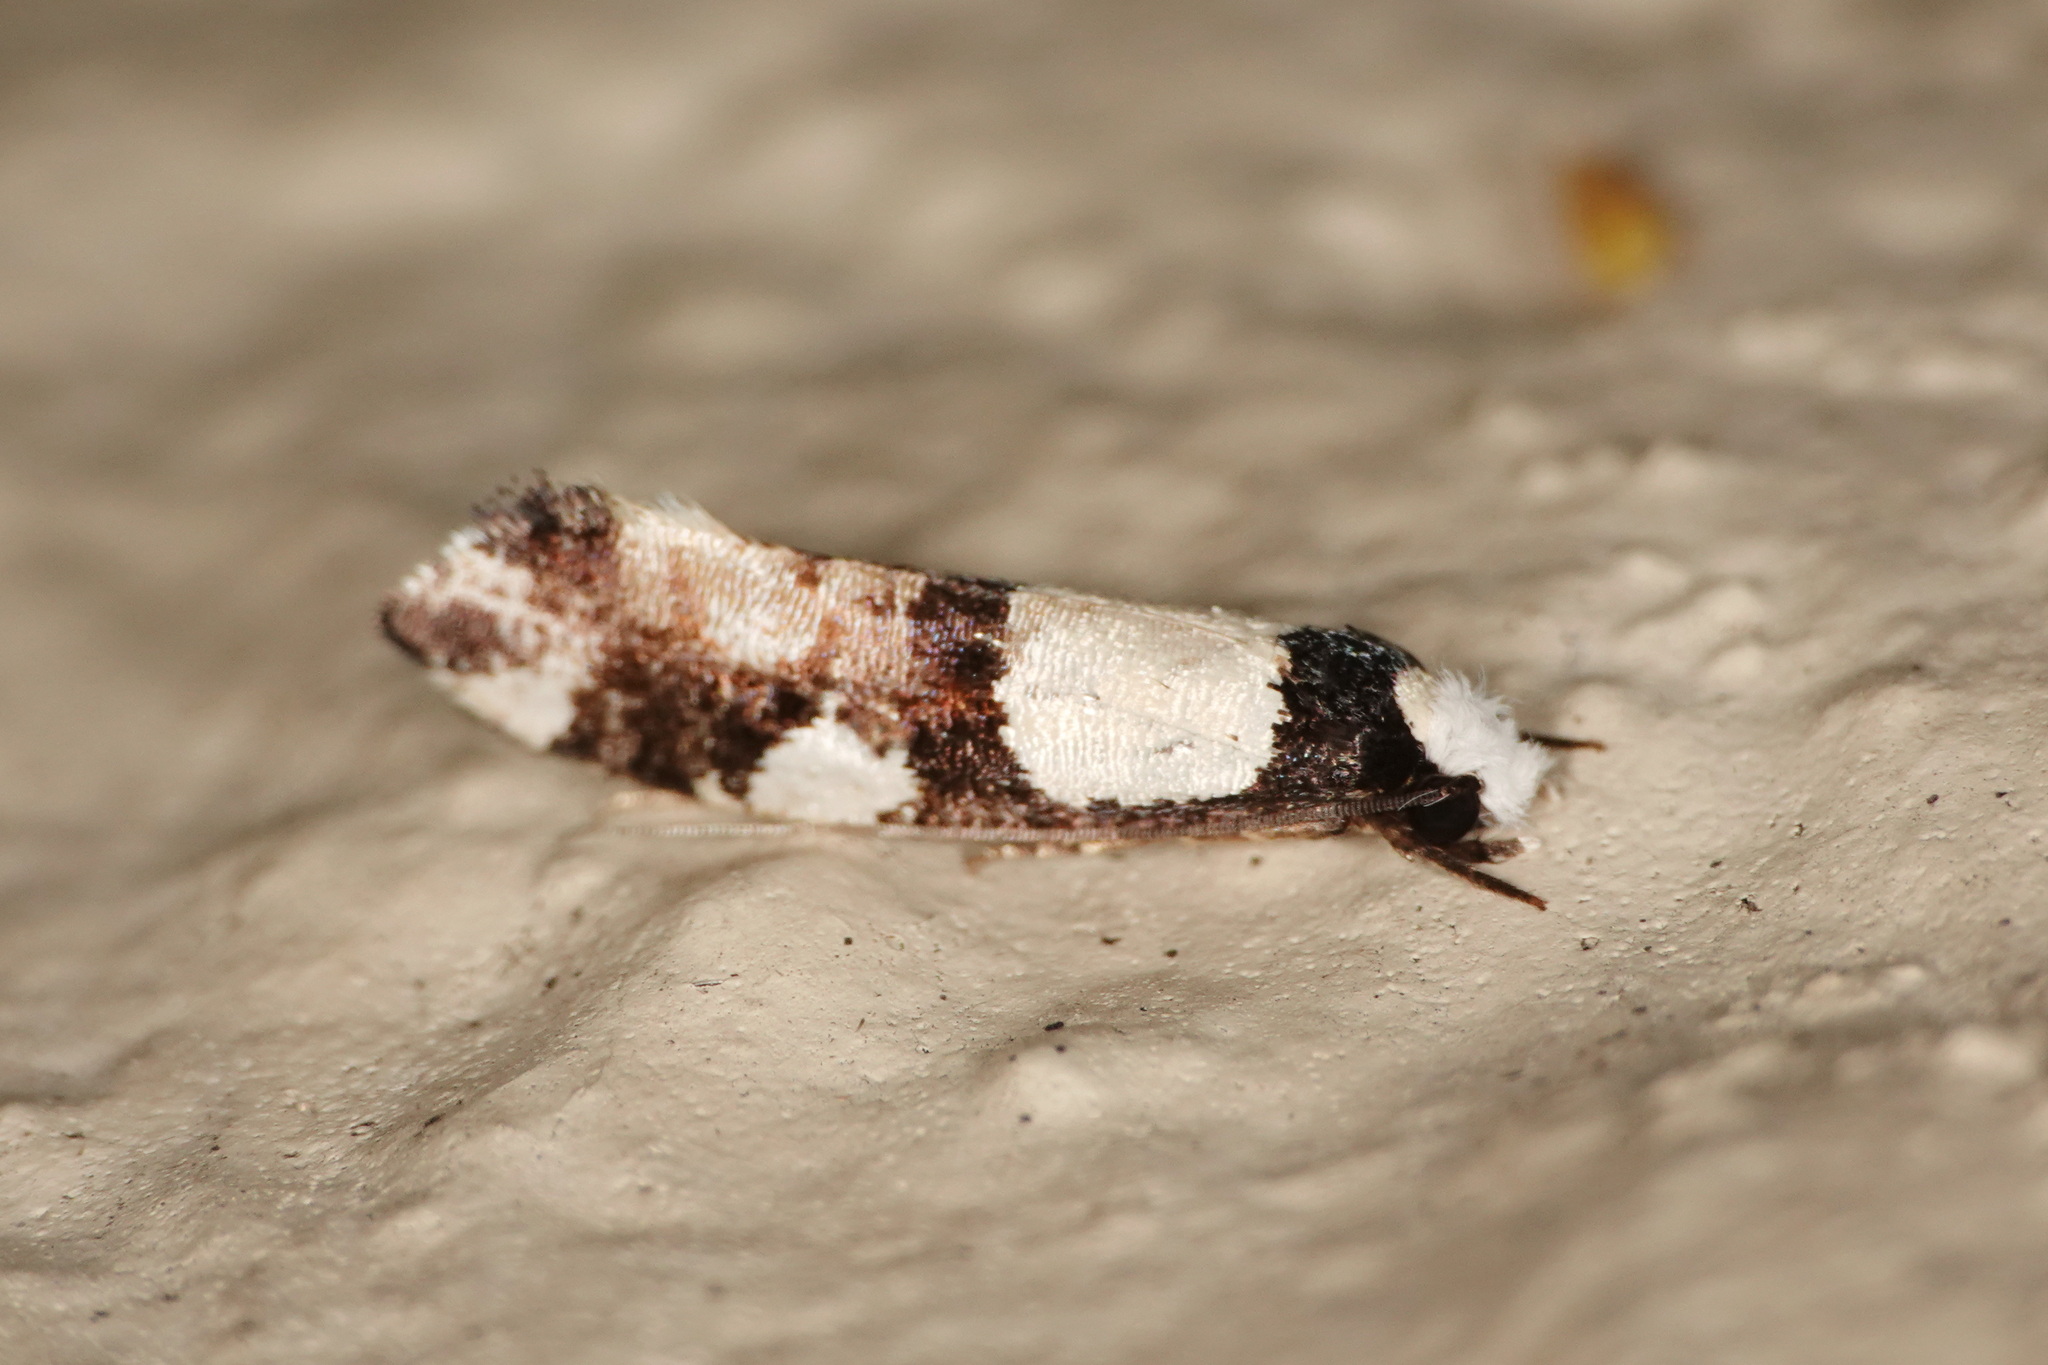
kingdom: Animalia
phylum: Arthropoda
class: Insecta
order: Lepidoptera
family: Tineidae
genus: Monopis
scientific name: Monopis icterogastra
